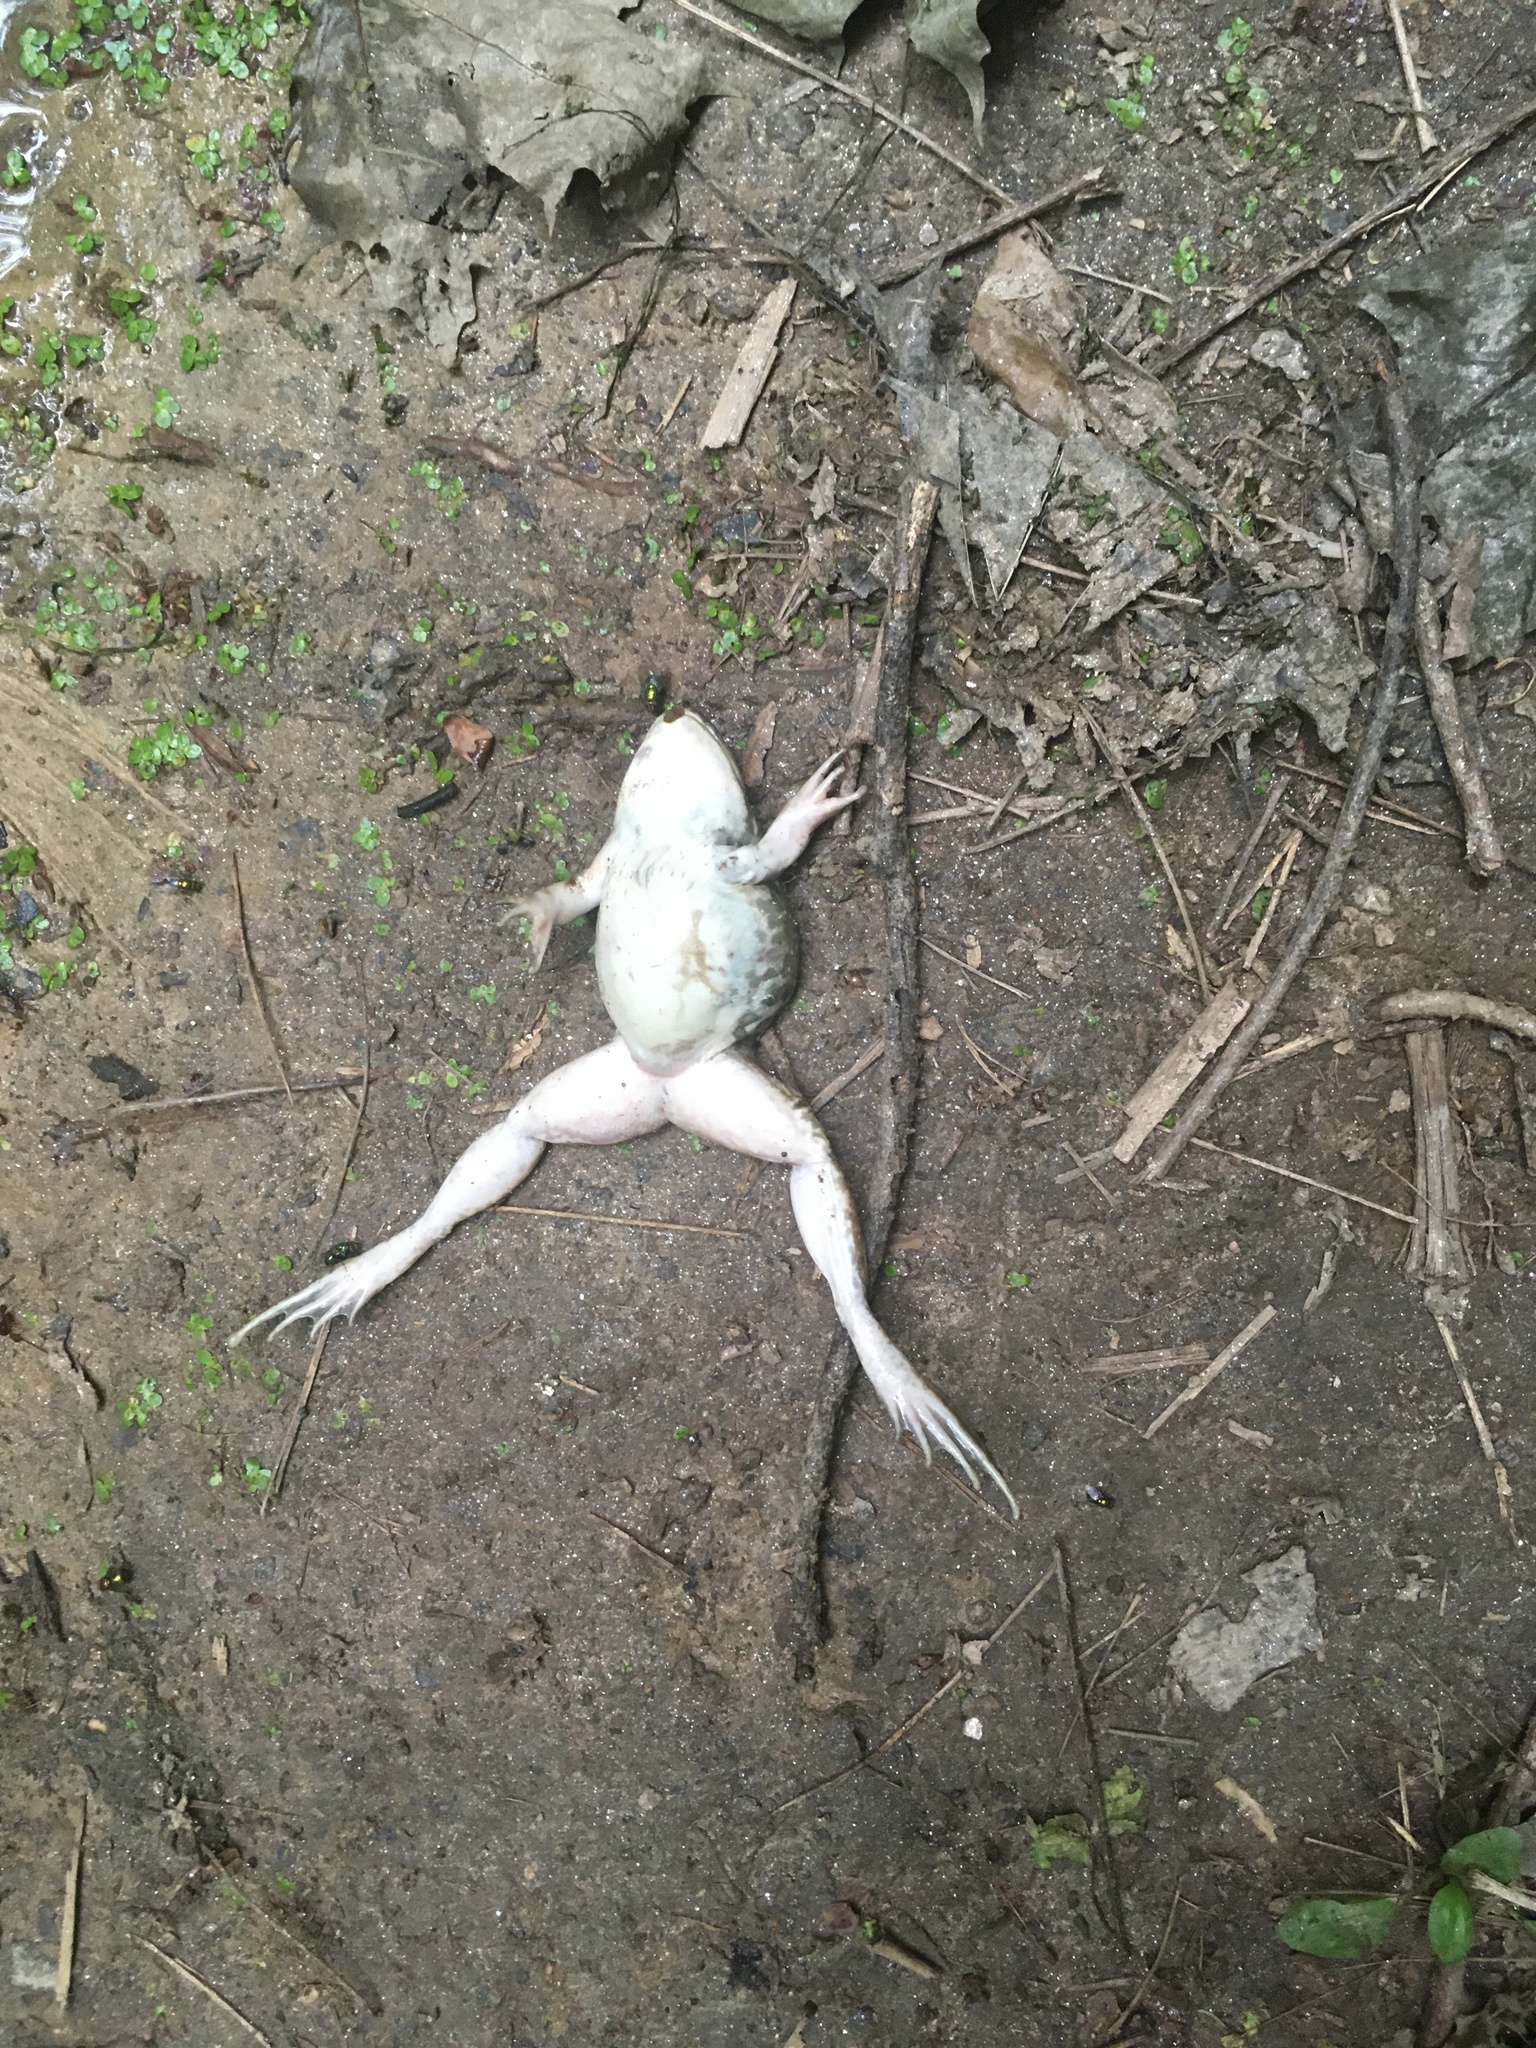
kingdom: Animalia
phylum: Chordata
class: Amphibia
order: Anura
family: Ranidae
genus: Lithobates
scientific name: Lithobates clamitans
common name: Green frog
